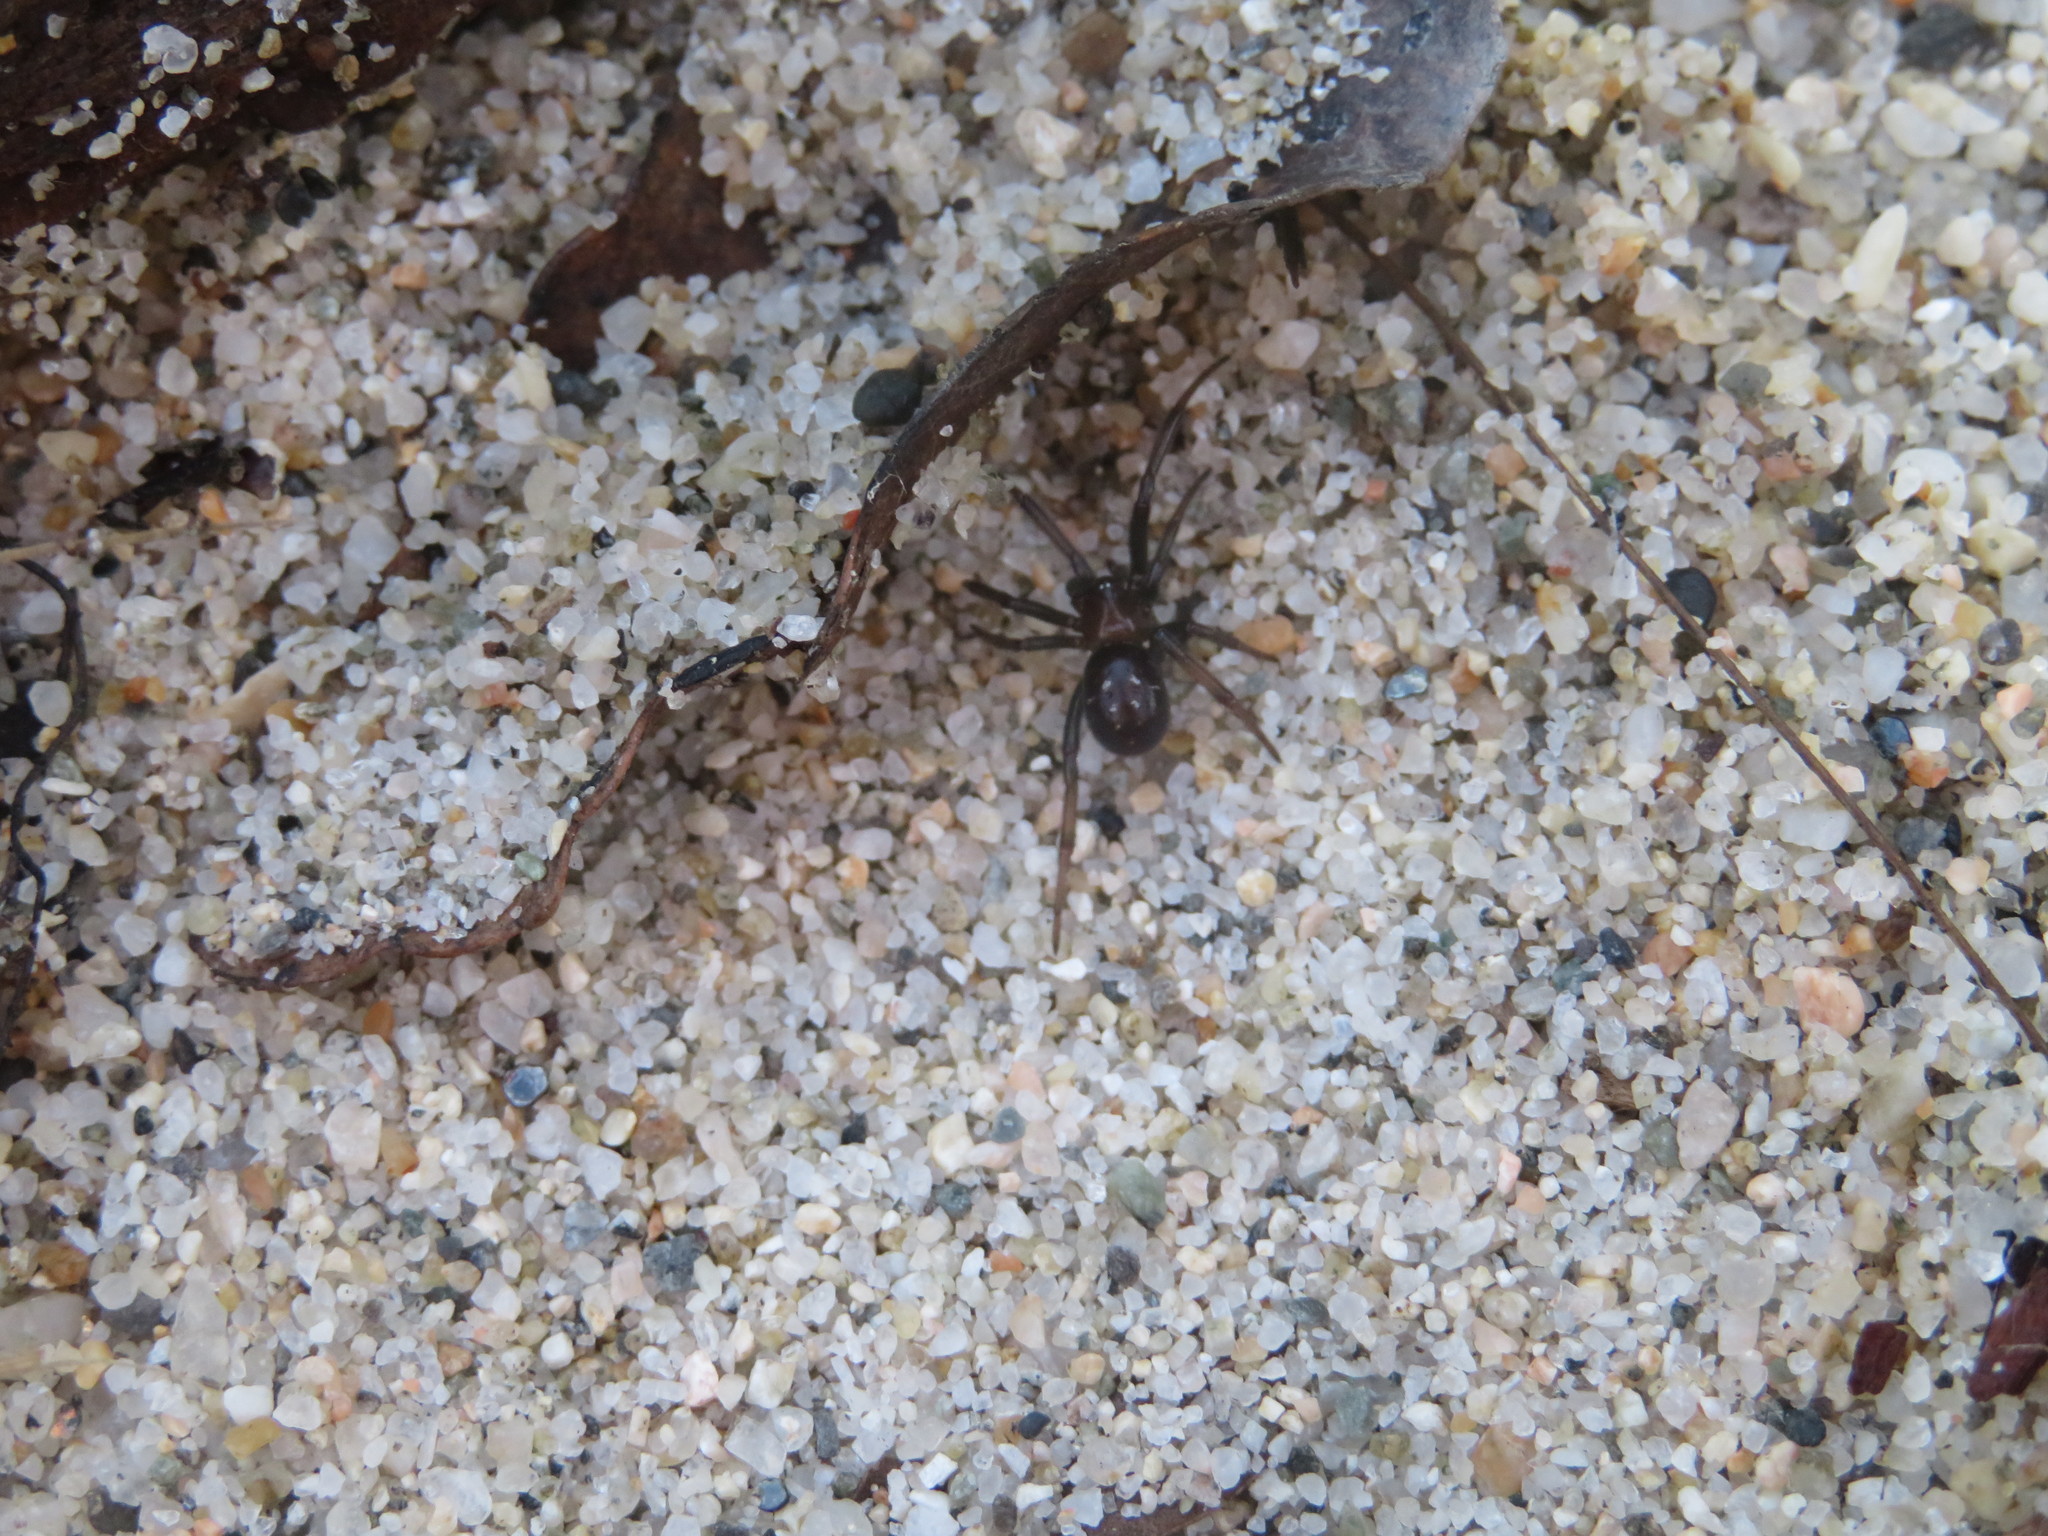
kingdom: Animalia
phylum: Arthropoda
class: Arachnida
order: Araneae
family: Theridiidae
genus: Steatoda
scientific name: Steatoda capensis
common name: Cobweb weaver
